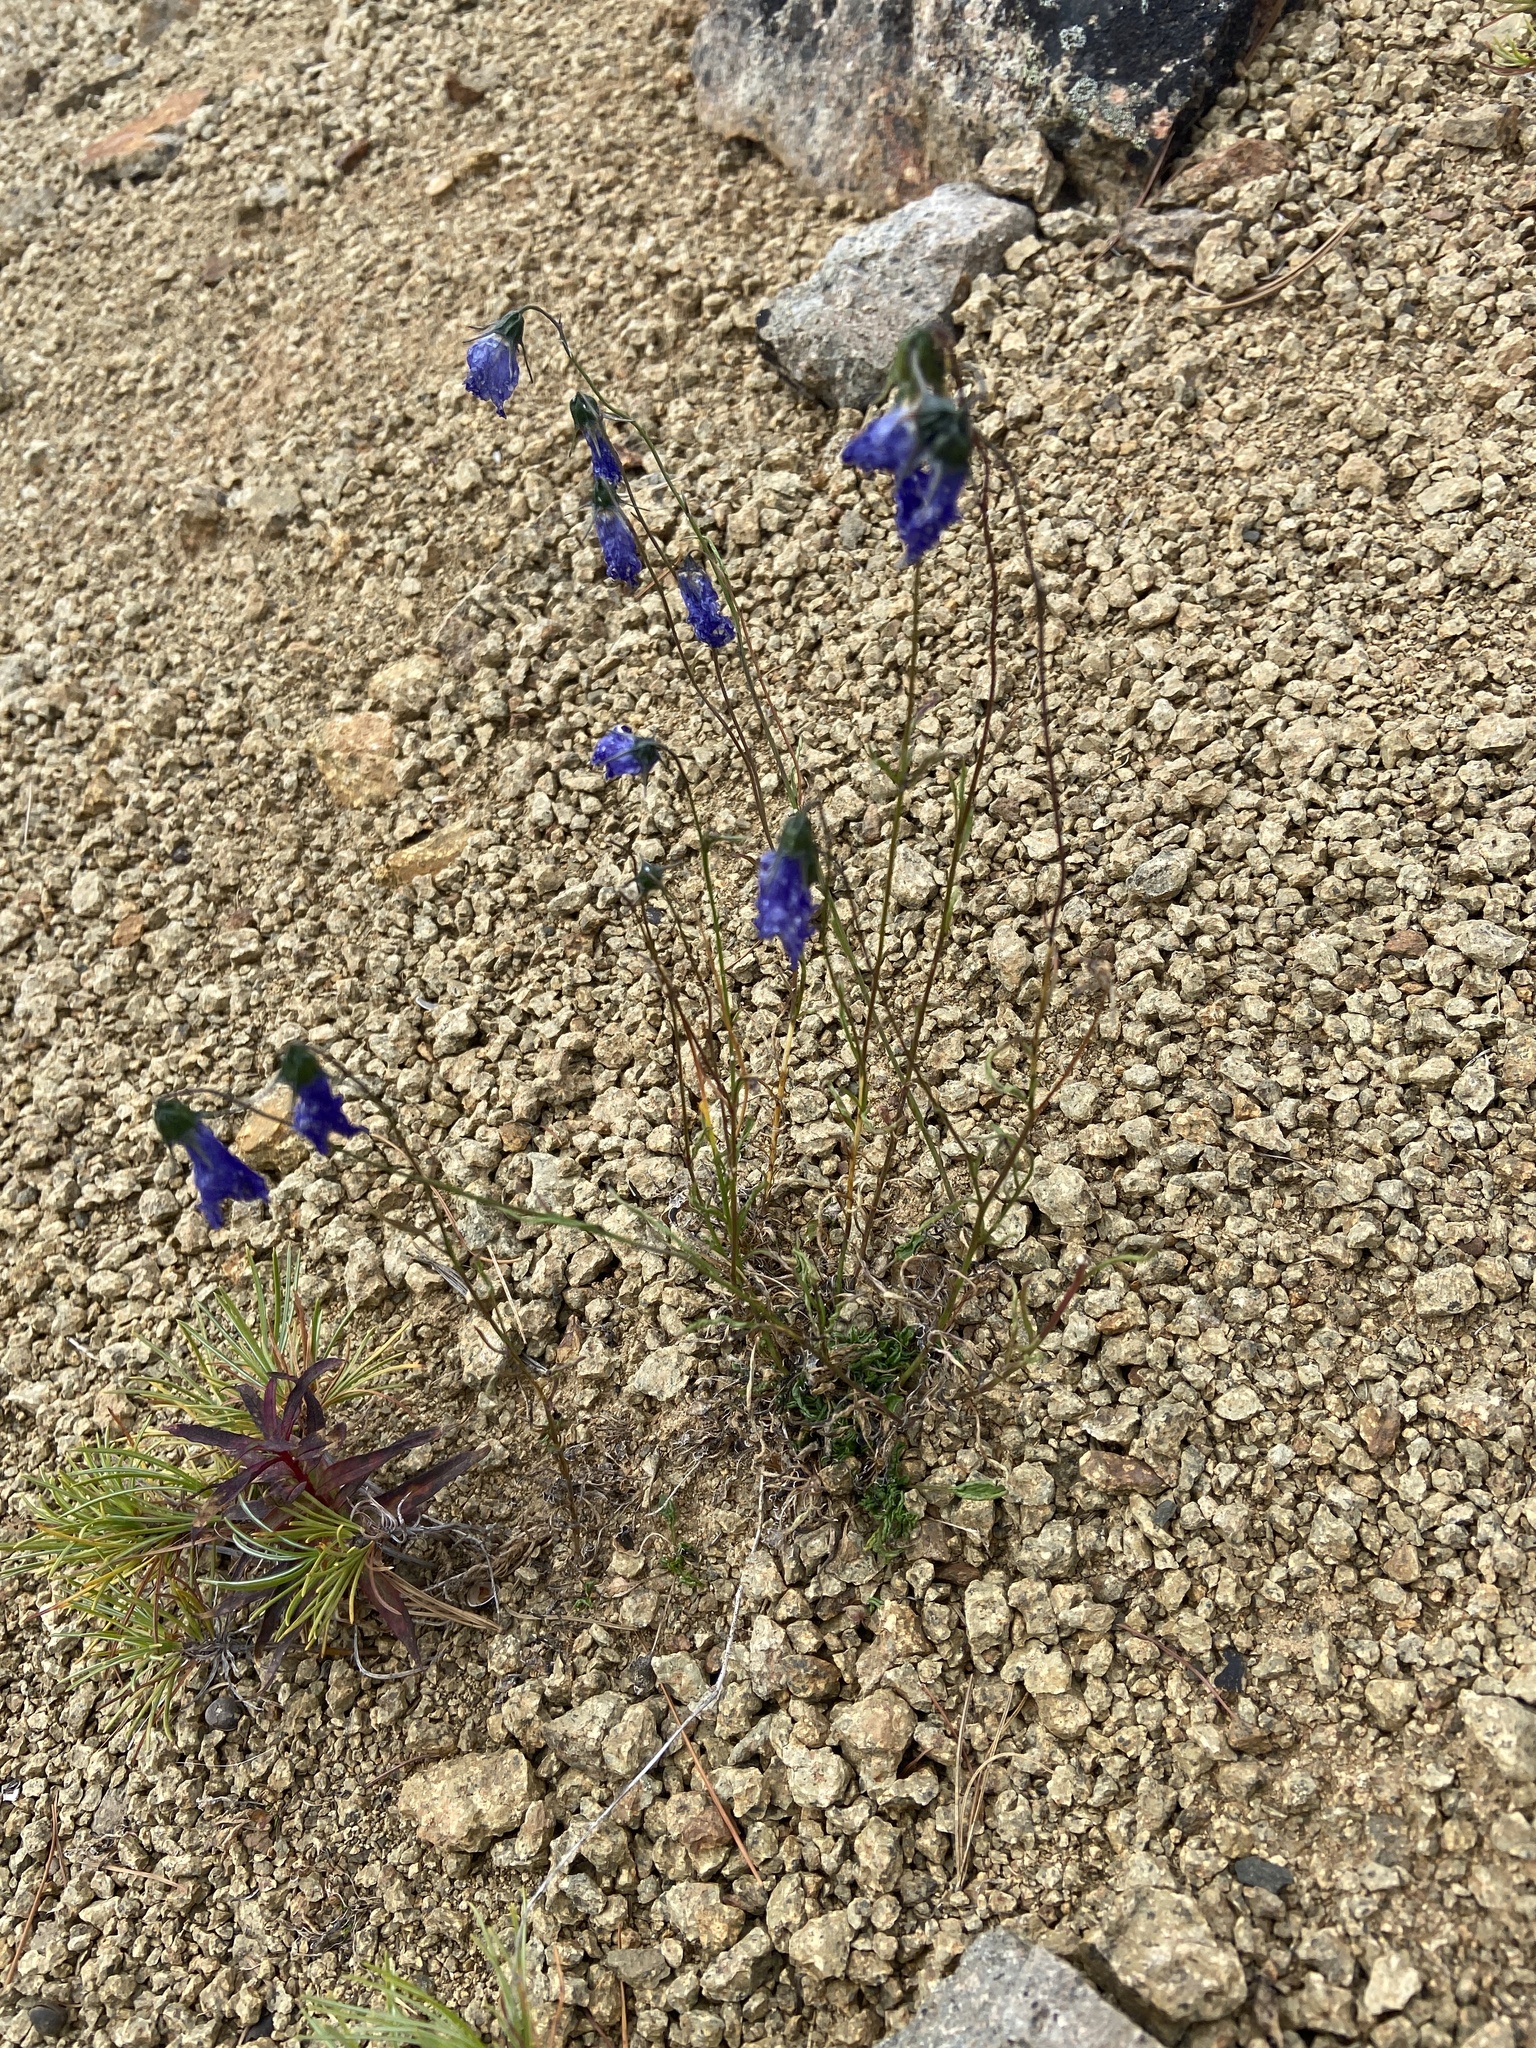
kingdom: Plantae
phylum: Tracheophyta
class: Magnoliopsida
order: Asterales
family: Campanulaceae
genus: Campanula
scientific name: Campanula rotundifolia
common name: Harebell
